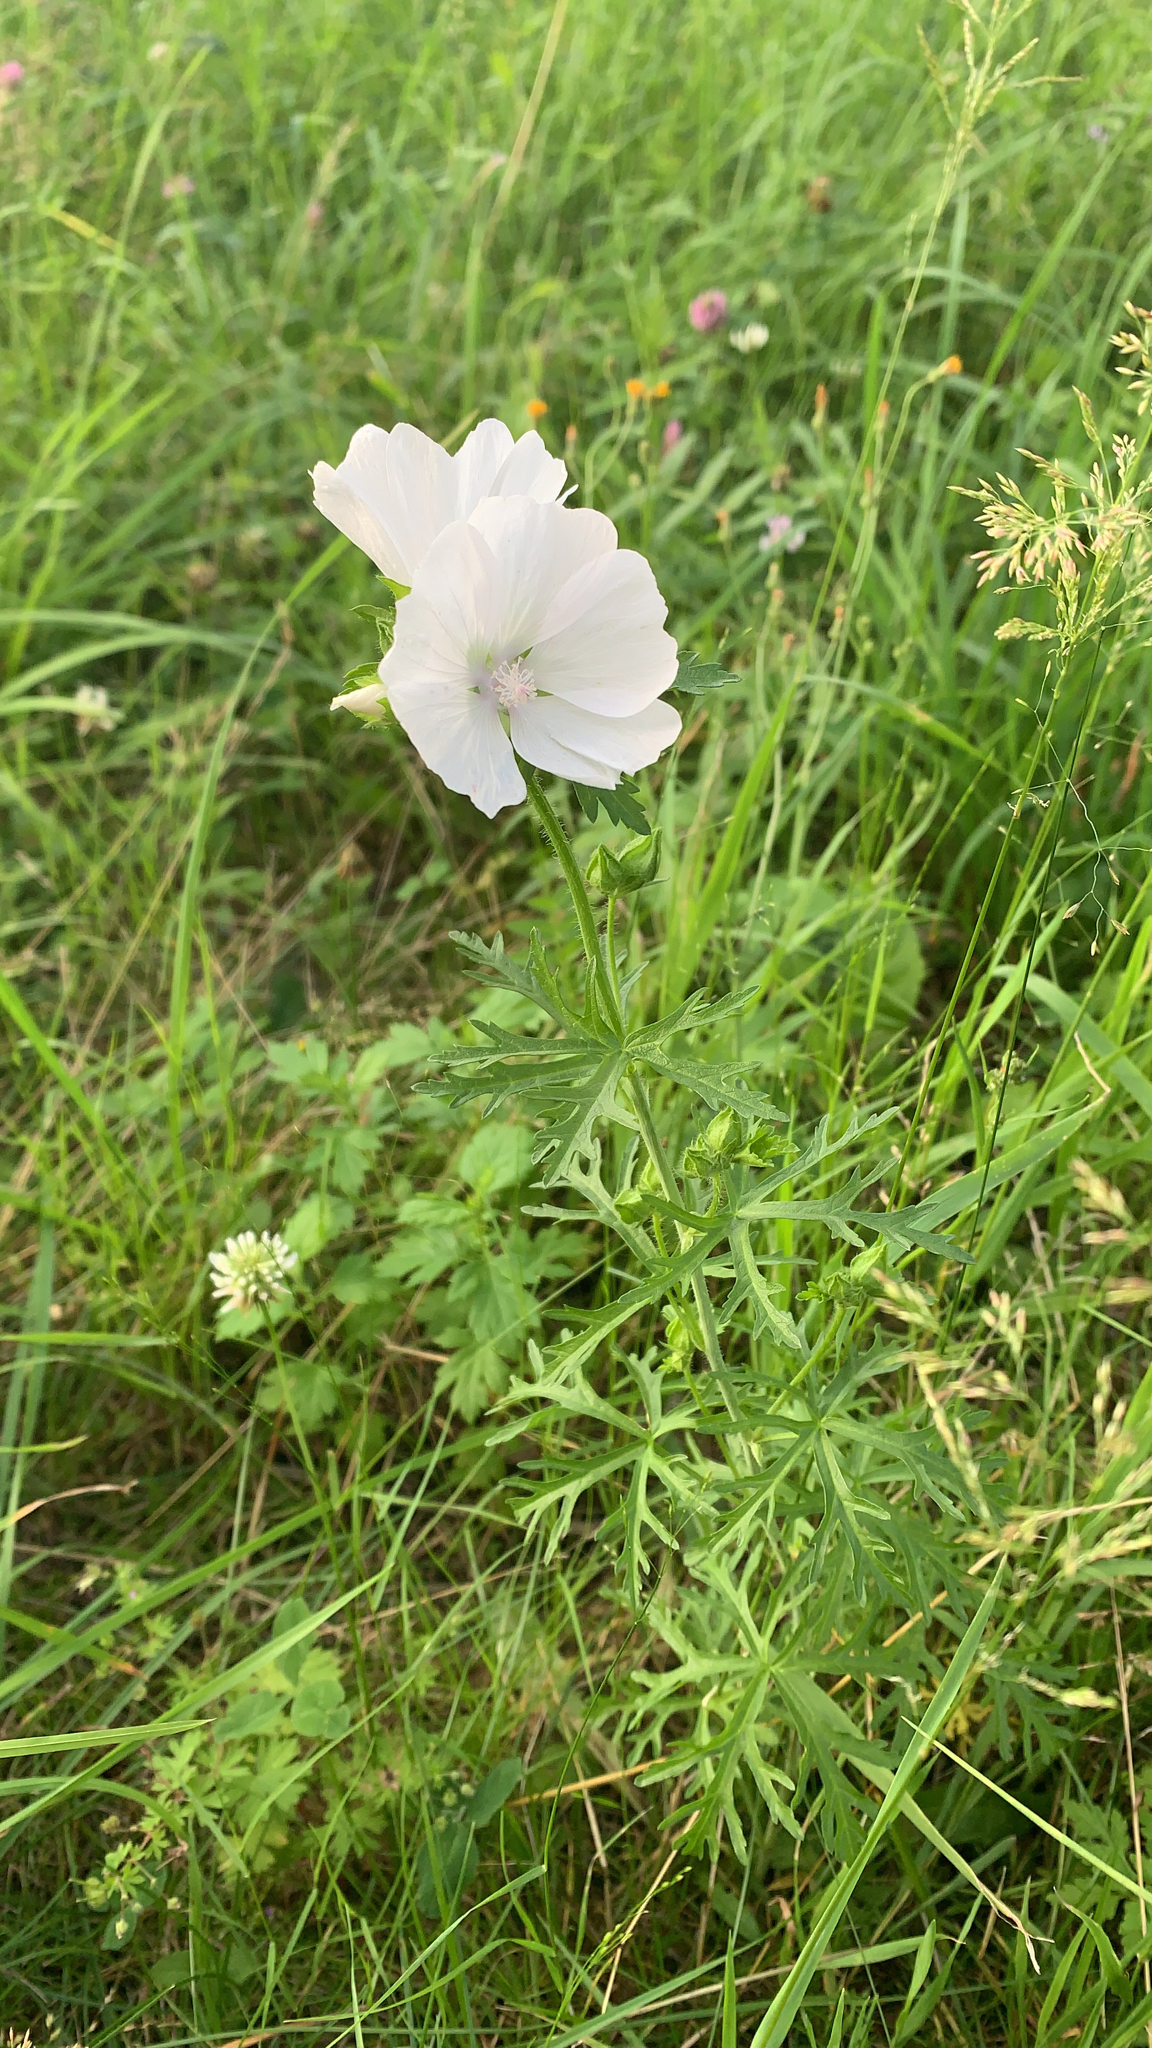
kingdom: Plantae
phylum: Tracheophyta
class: Magnoliopsida
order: Malvales
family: Malvaceae
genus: Malva
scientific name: Malva moschata
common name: Musk mallow
